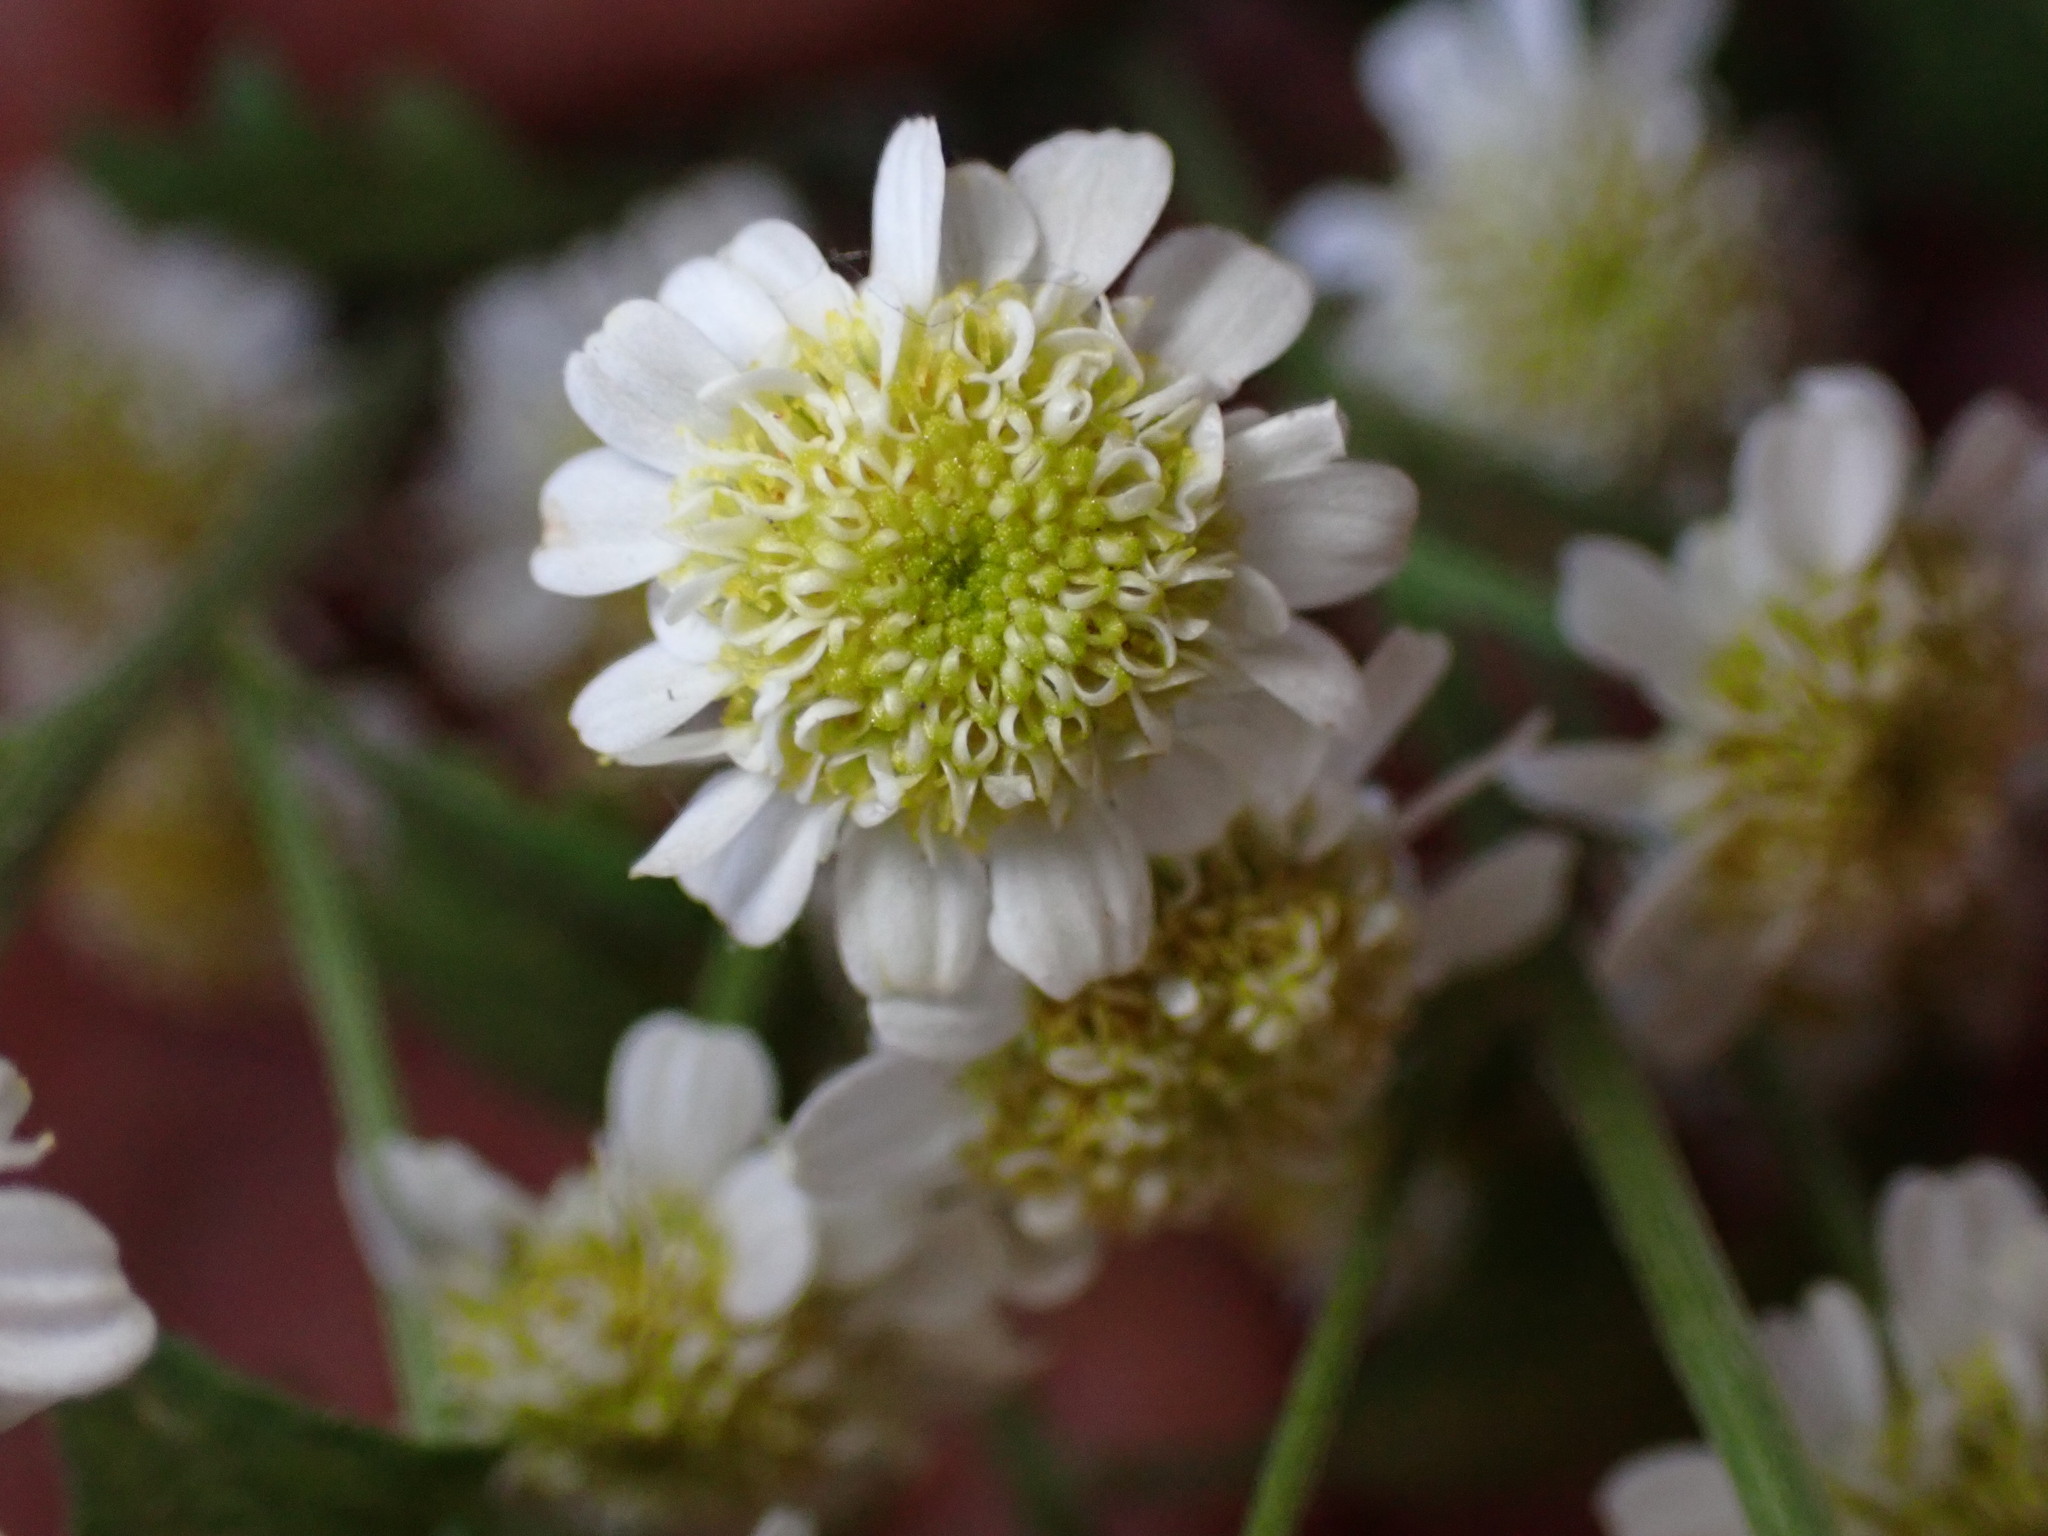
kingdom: Plantae
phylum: Tracheophyta
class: Magnoliopsida
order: Asterales
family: Asteraceae
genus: Tanacetum
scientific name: Tanacetum parthenium
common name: Feverfew
